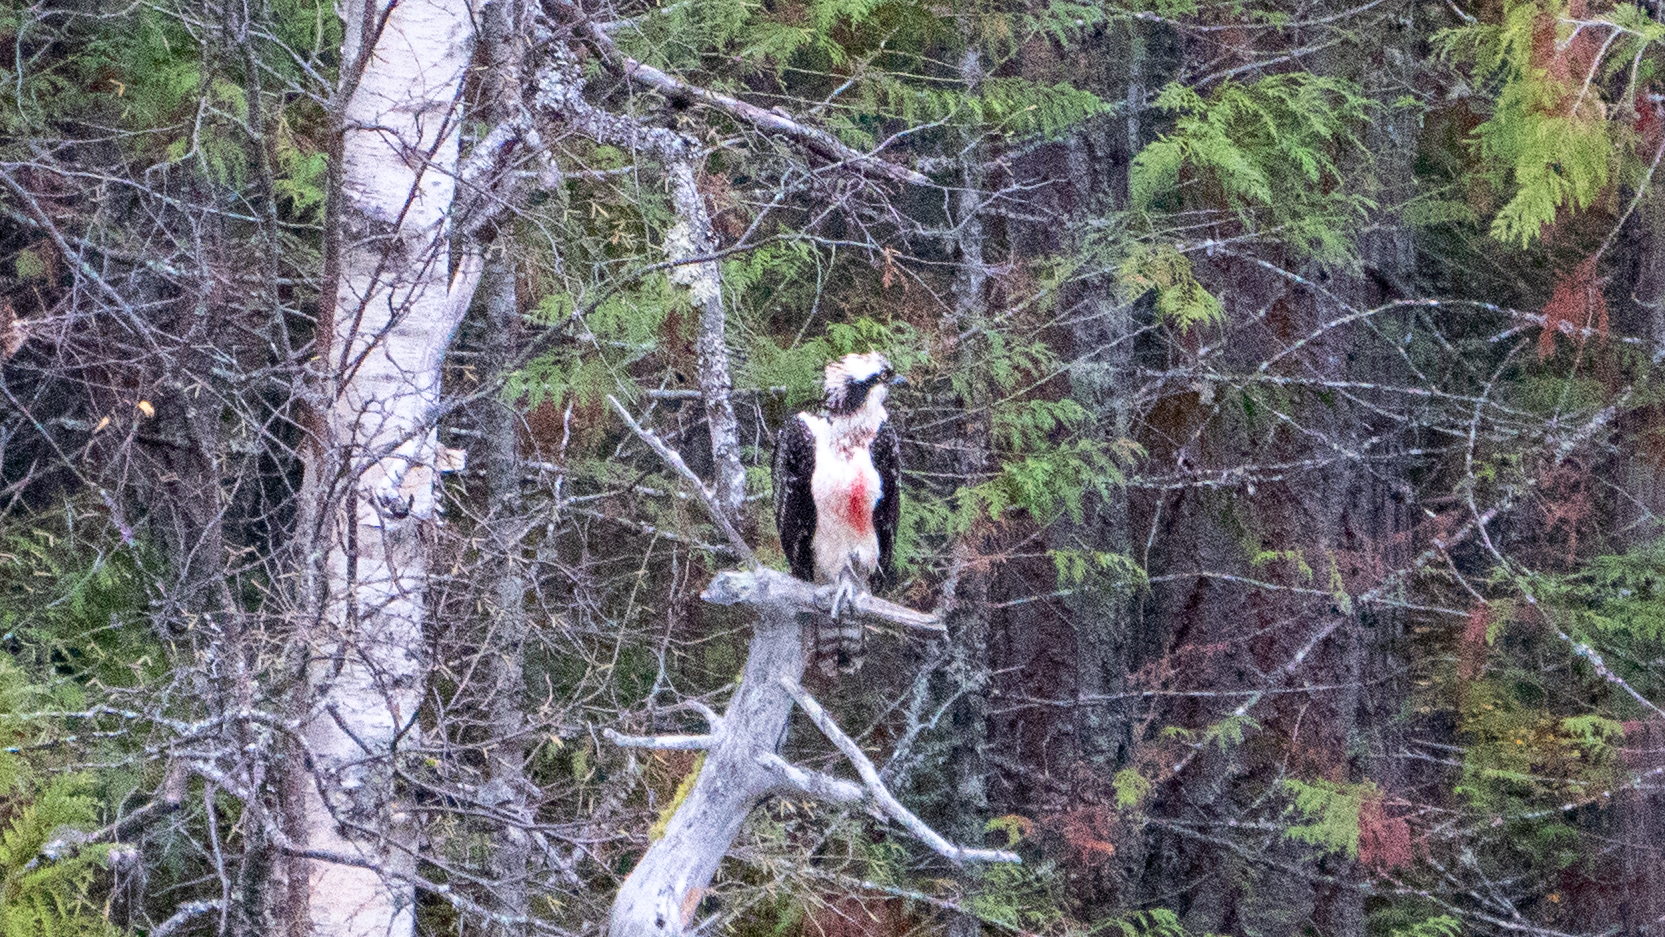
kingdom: Animalia
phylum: Chordata
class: Aves
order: Accipitriformes
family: Pandionidae
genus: Pandion
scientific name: Pandion haliaetus
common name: Osprey
